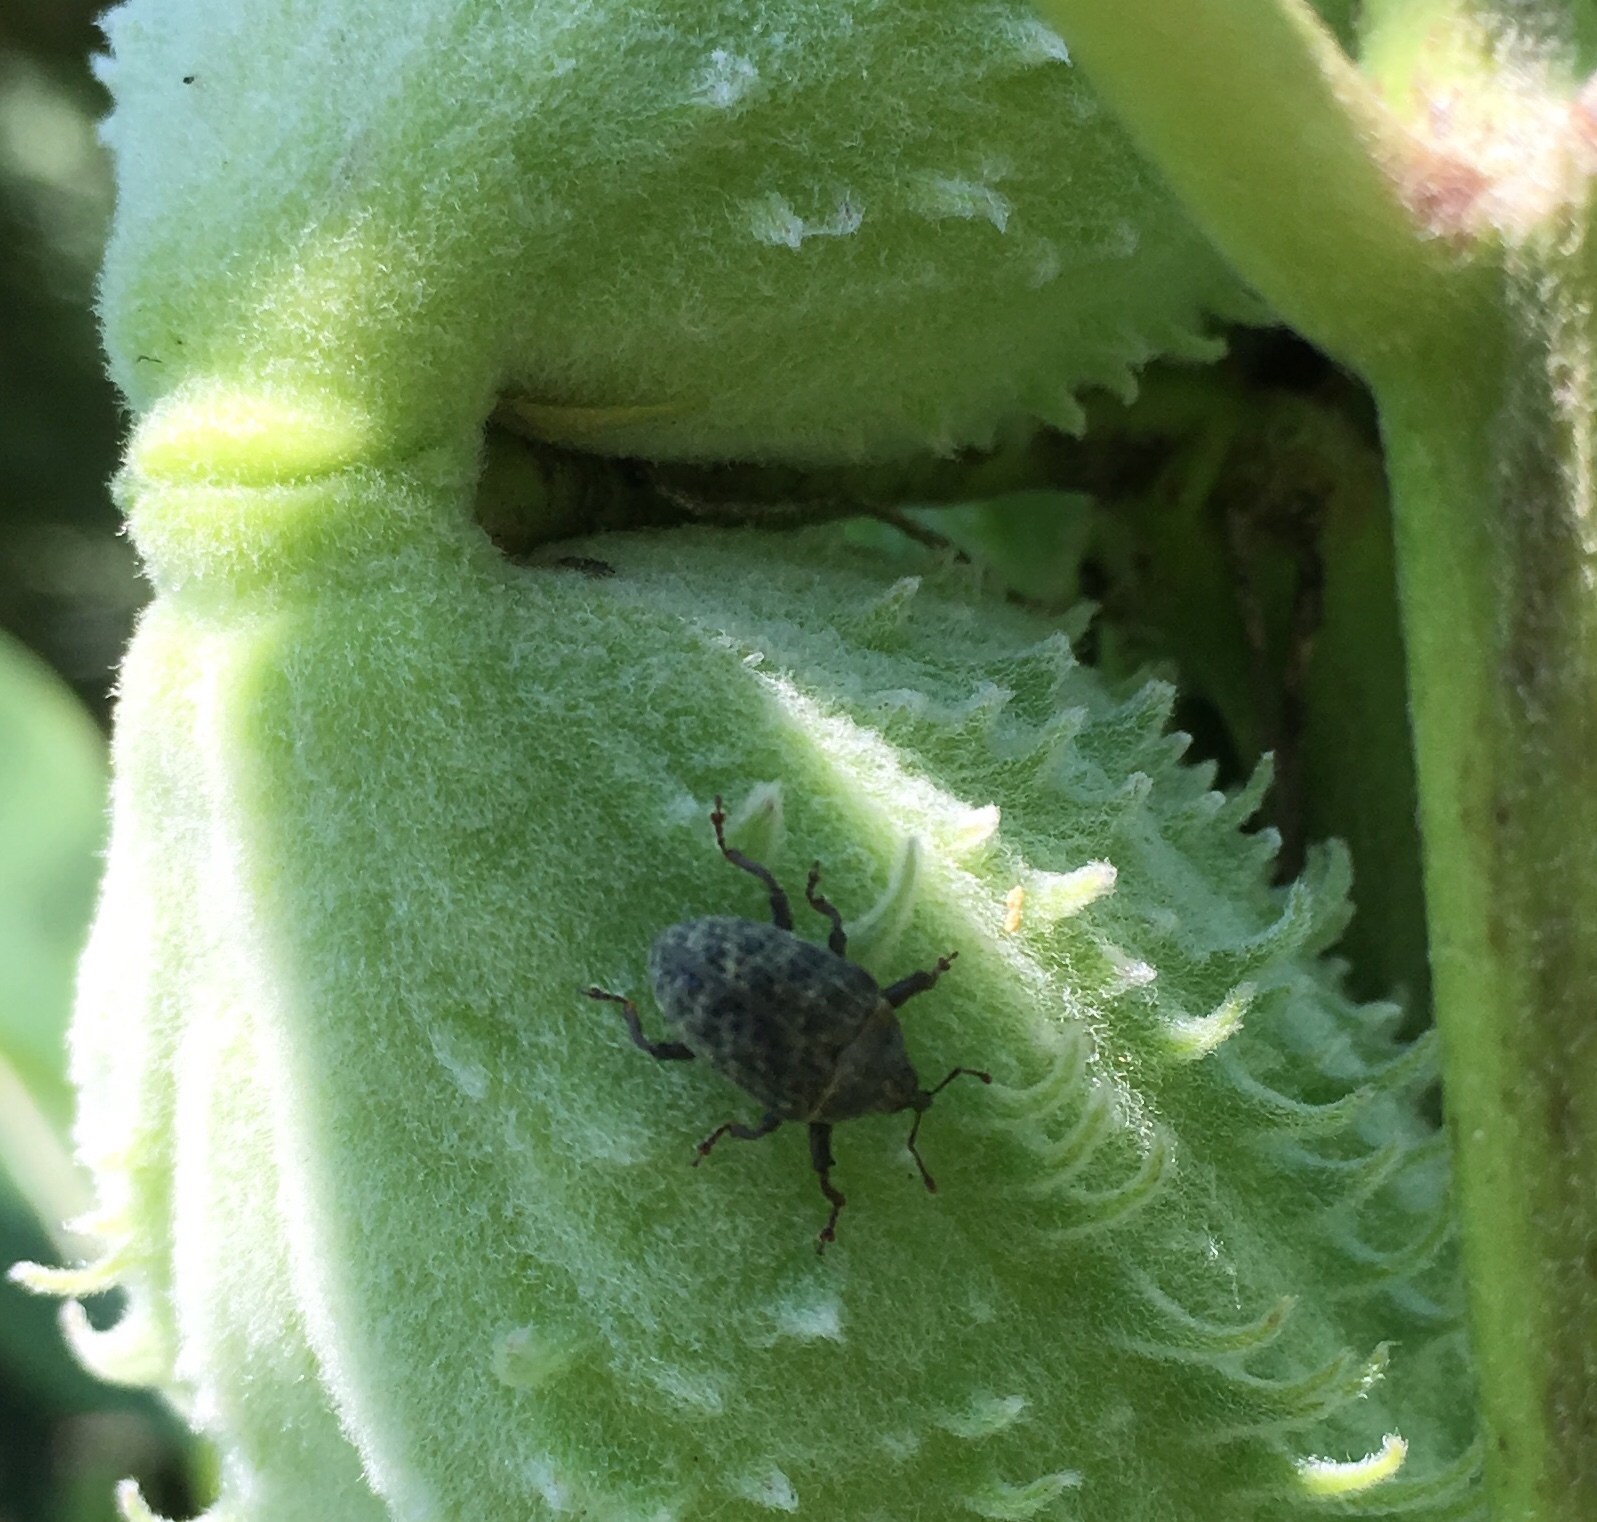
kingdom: Animalia
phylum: Arthropoda
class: Insecta
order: Coleoptera
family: Curculionidae
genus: Rhyssomatus
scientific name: Rhyssomatus lineaticollis
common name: Milkweed stem weevil
